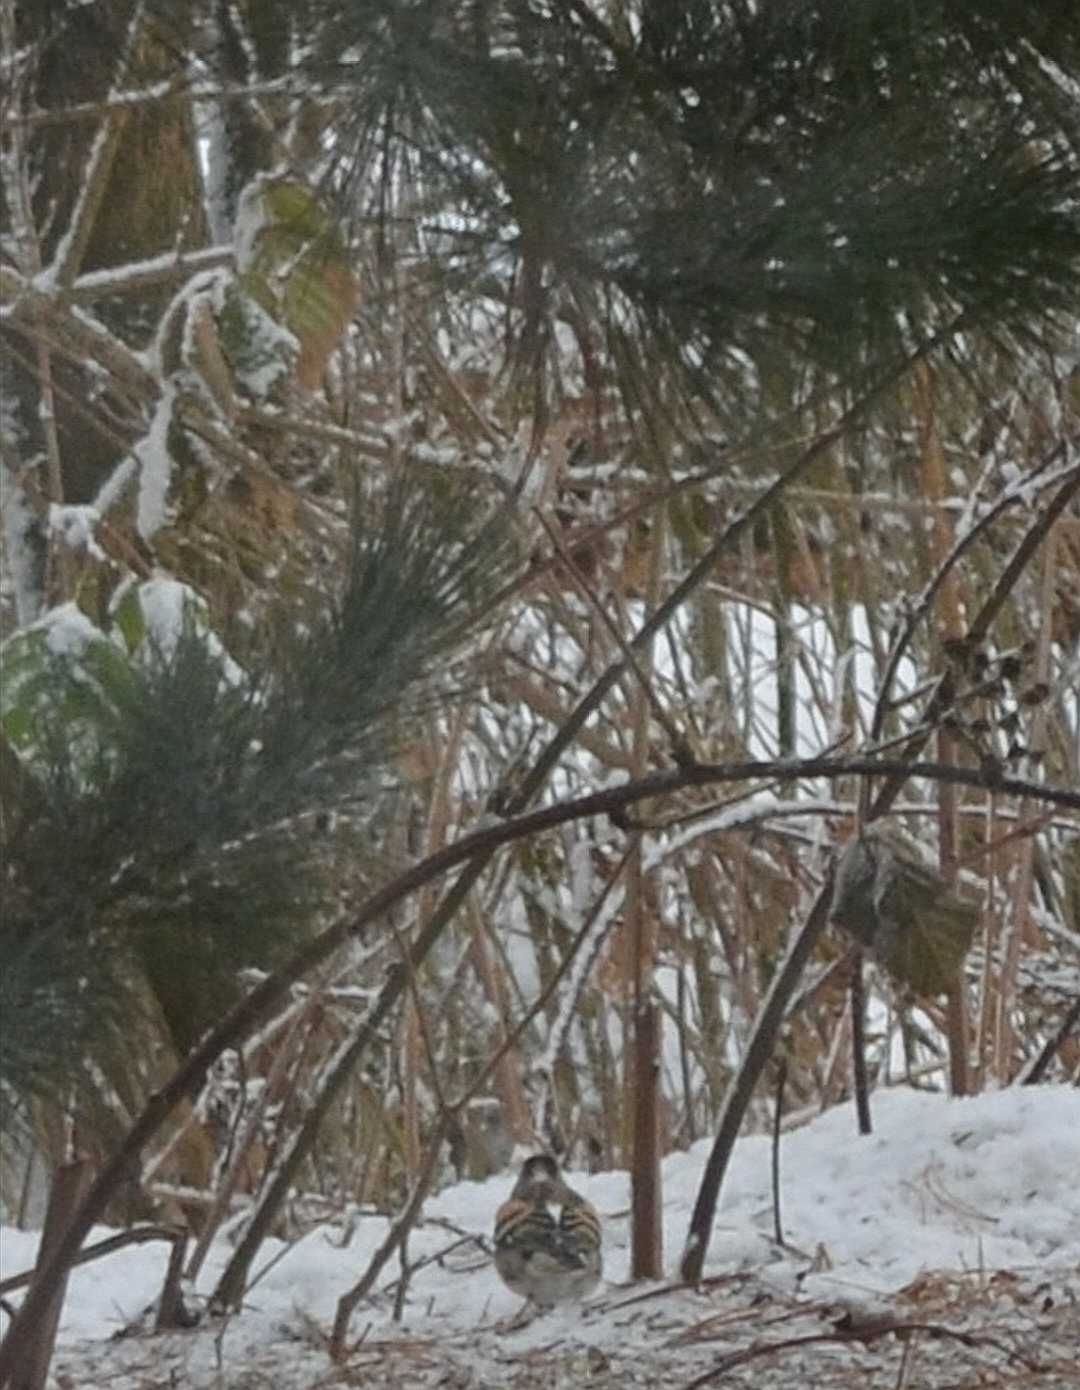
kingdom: Animalia
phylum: Chordata
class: Aves
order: Passeriformes
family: Fringillidae
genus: Fringilla
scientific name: Fringilla montifringilla
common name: Brambling
